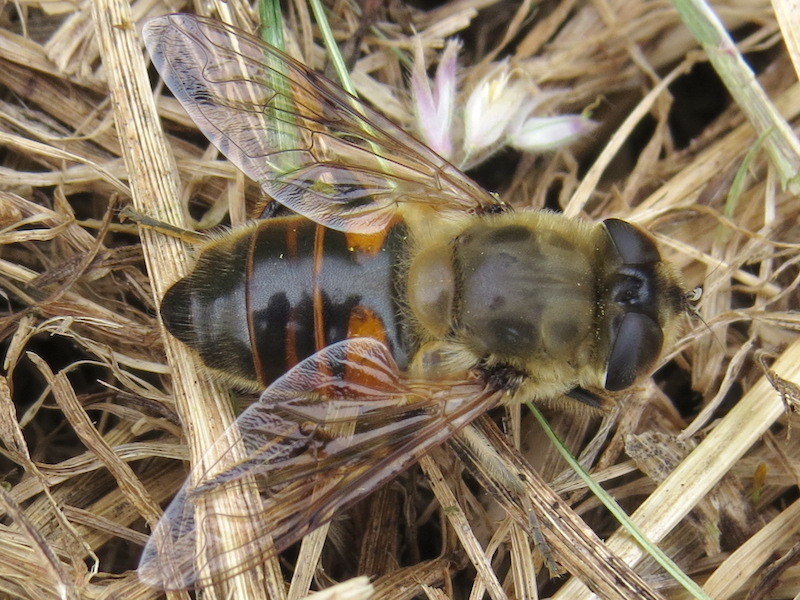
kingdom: Animalia
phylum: Arthropoda
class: Insecta
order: Diptera
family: Syrphidae
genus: Eristalis
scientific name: Eristalis tenax
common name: Drone fly
